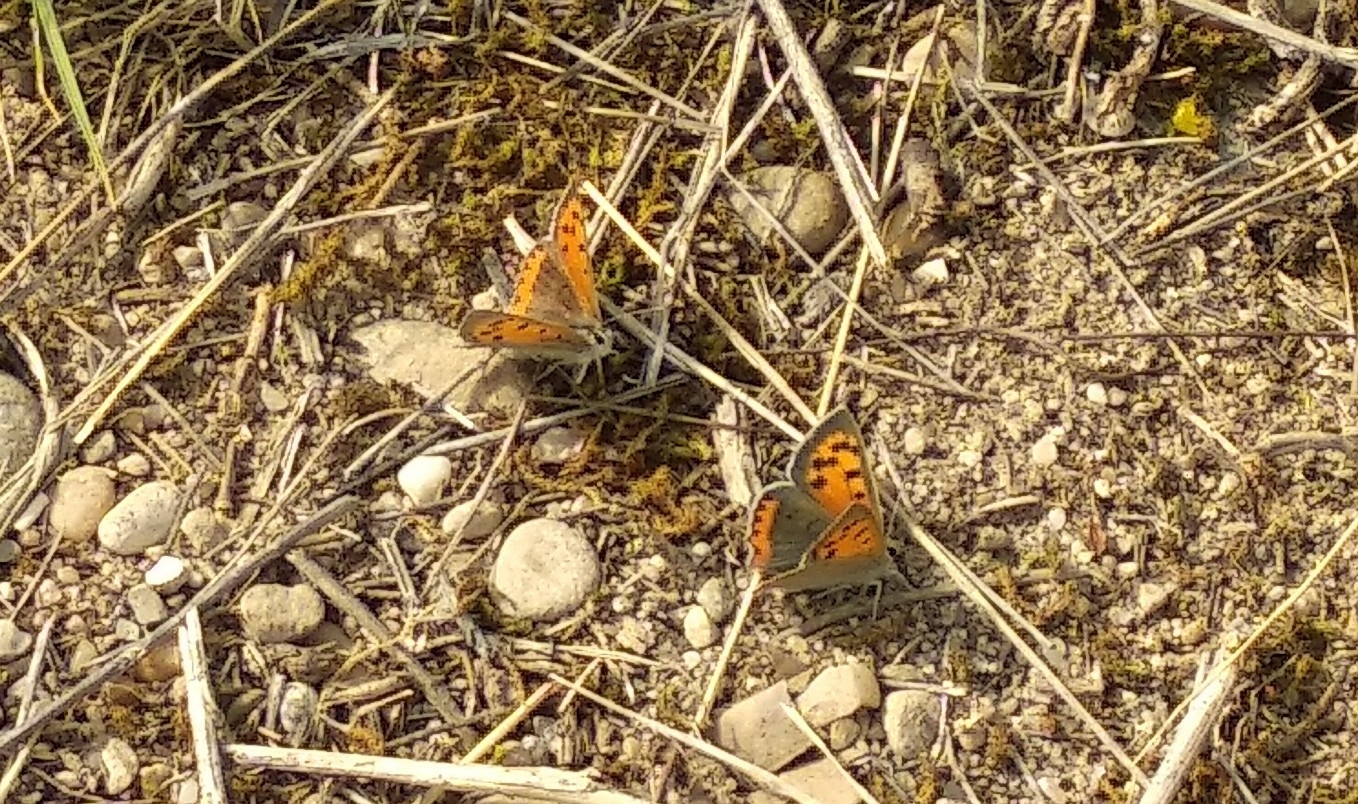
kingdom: Animalia
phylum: Arthropoda
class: Insecta
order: Lepidoptera
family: Lycaenidae
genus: Lycaena
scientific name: Lycaena phlaeas
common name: Small copper
